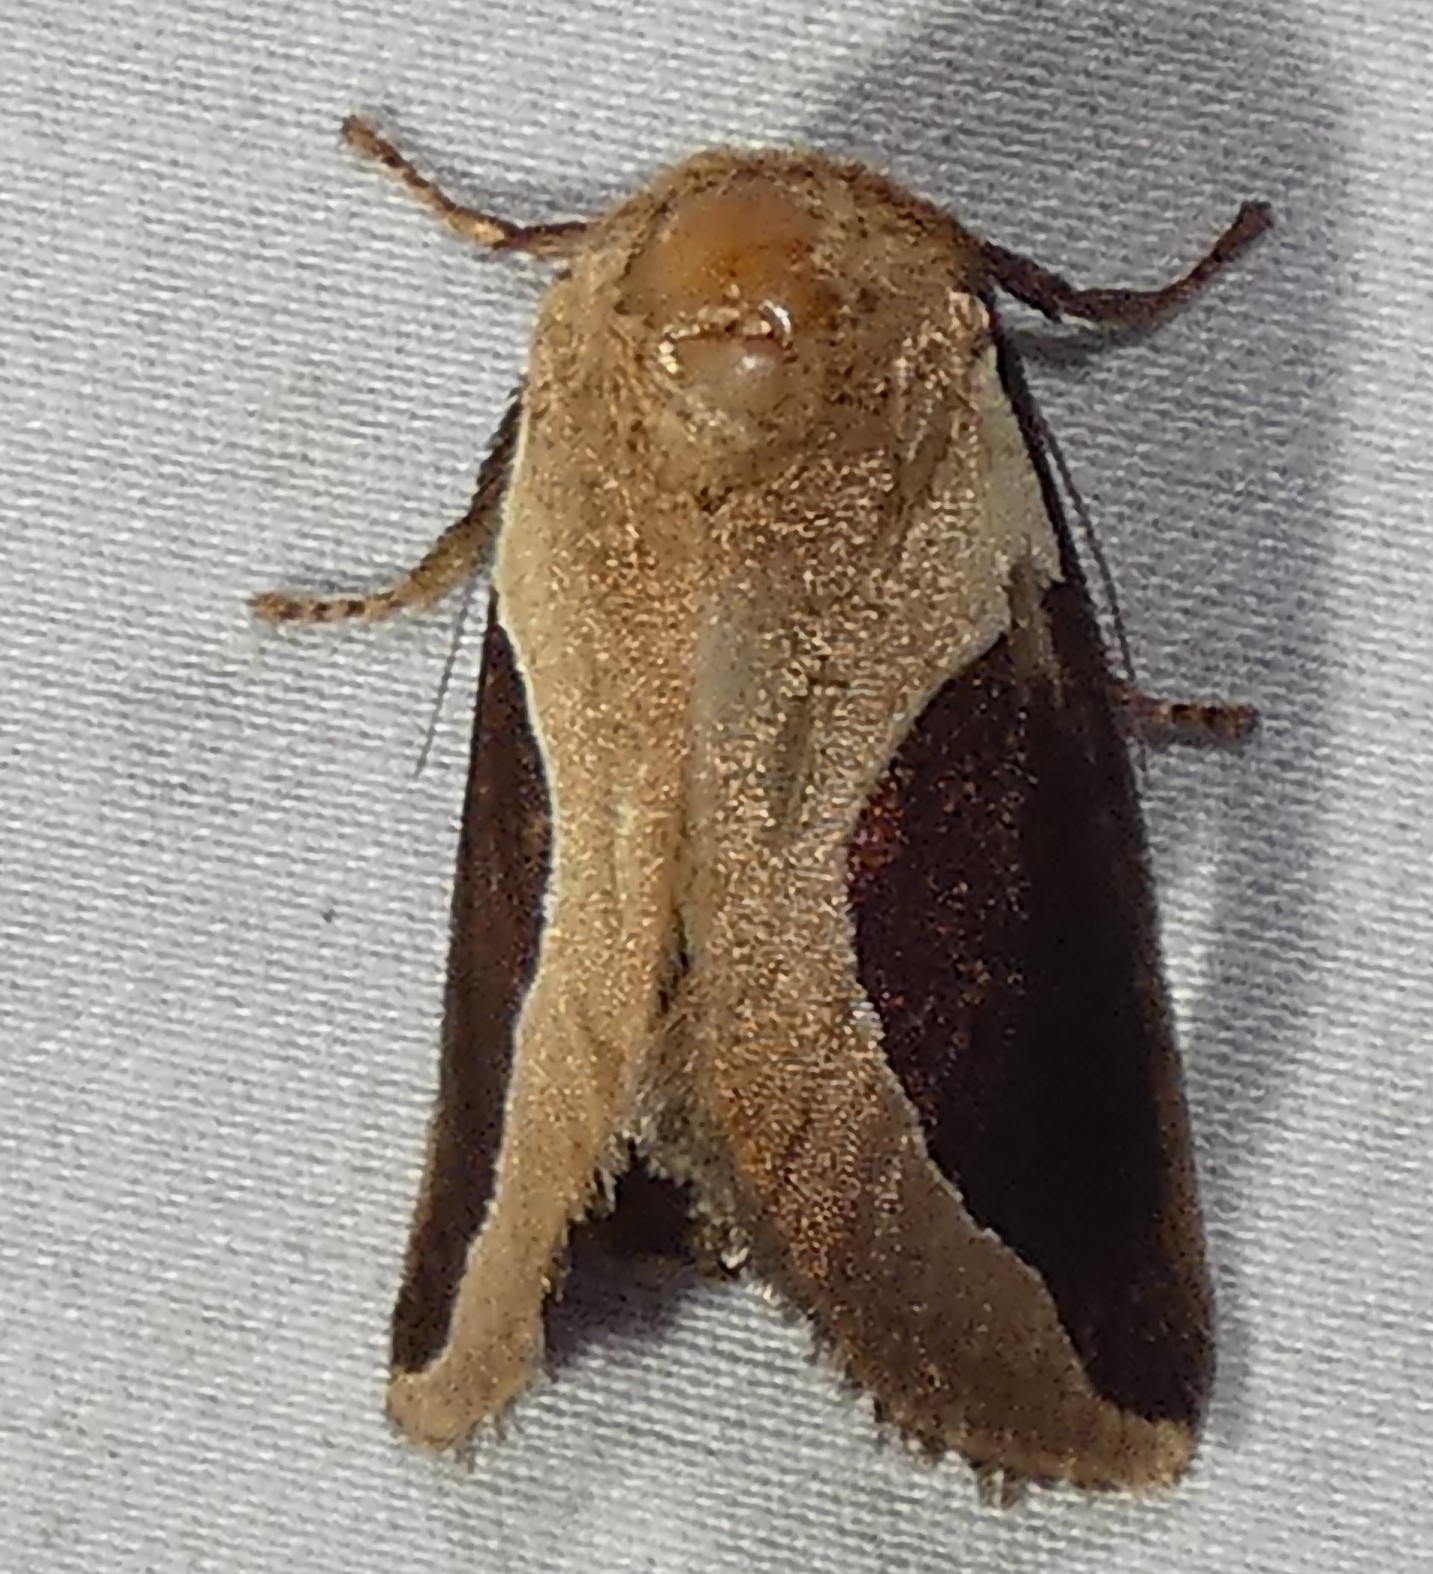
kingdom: Animalia
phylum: Arthropoda
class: Insecta
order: Lepidoptera
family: Limacodidae
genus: Prolimacodes
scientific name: Prolimacodes badia
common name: Skiff moth
